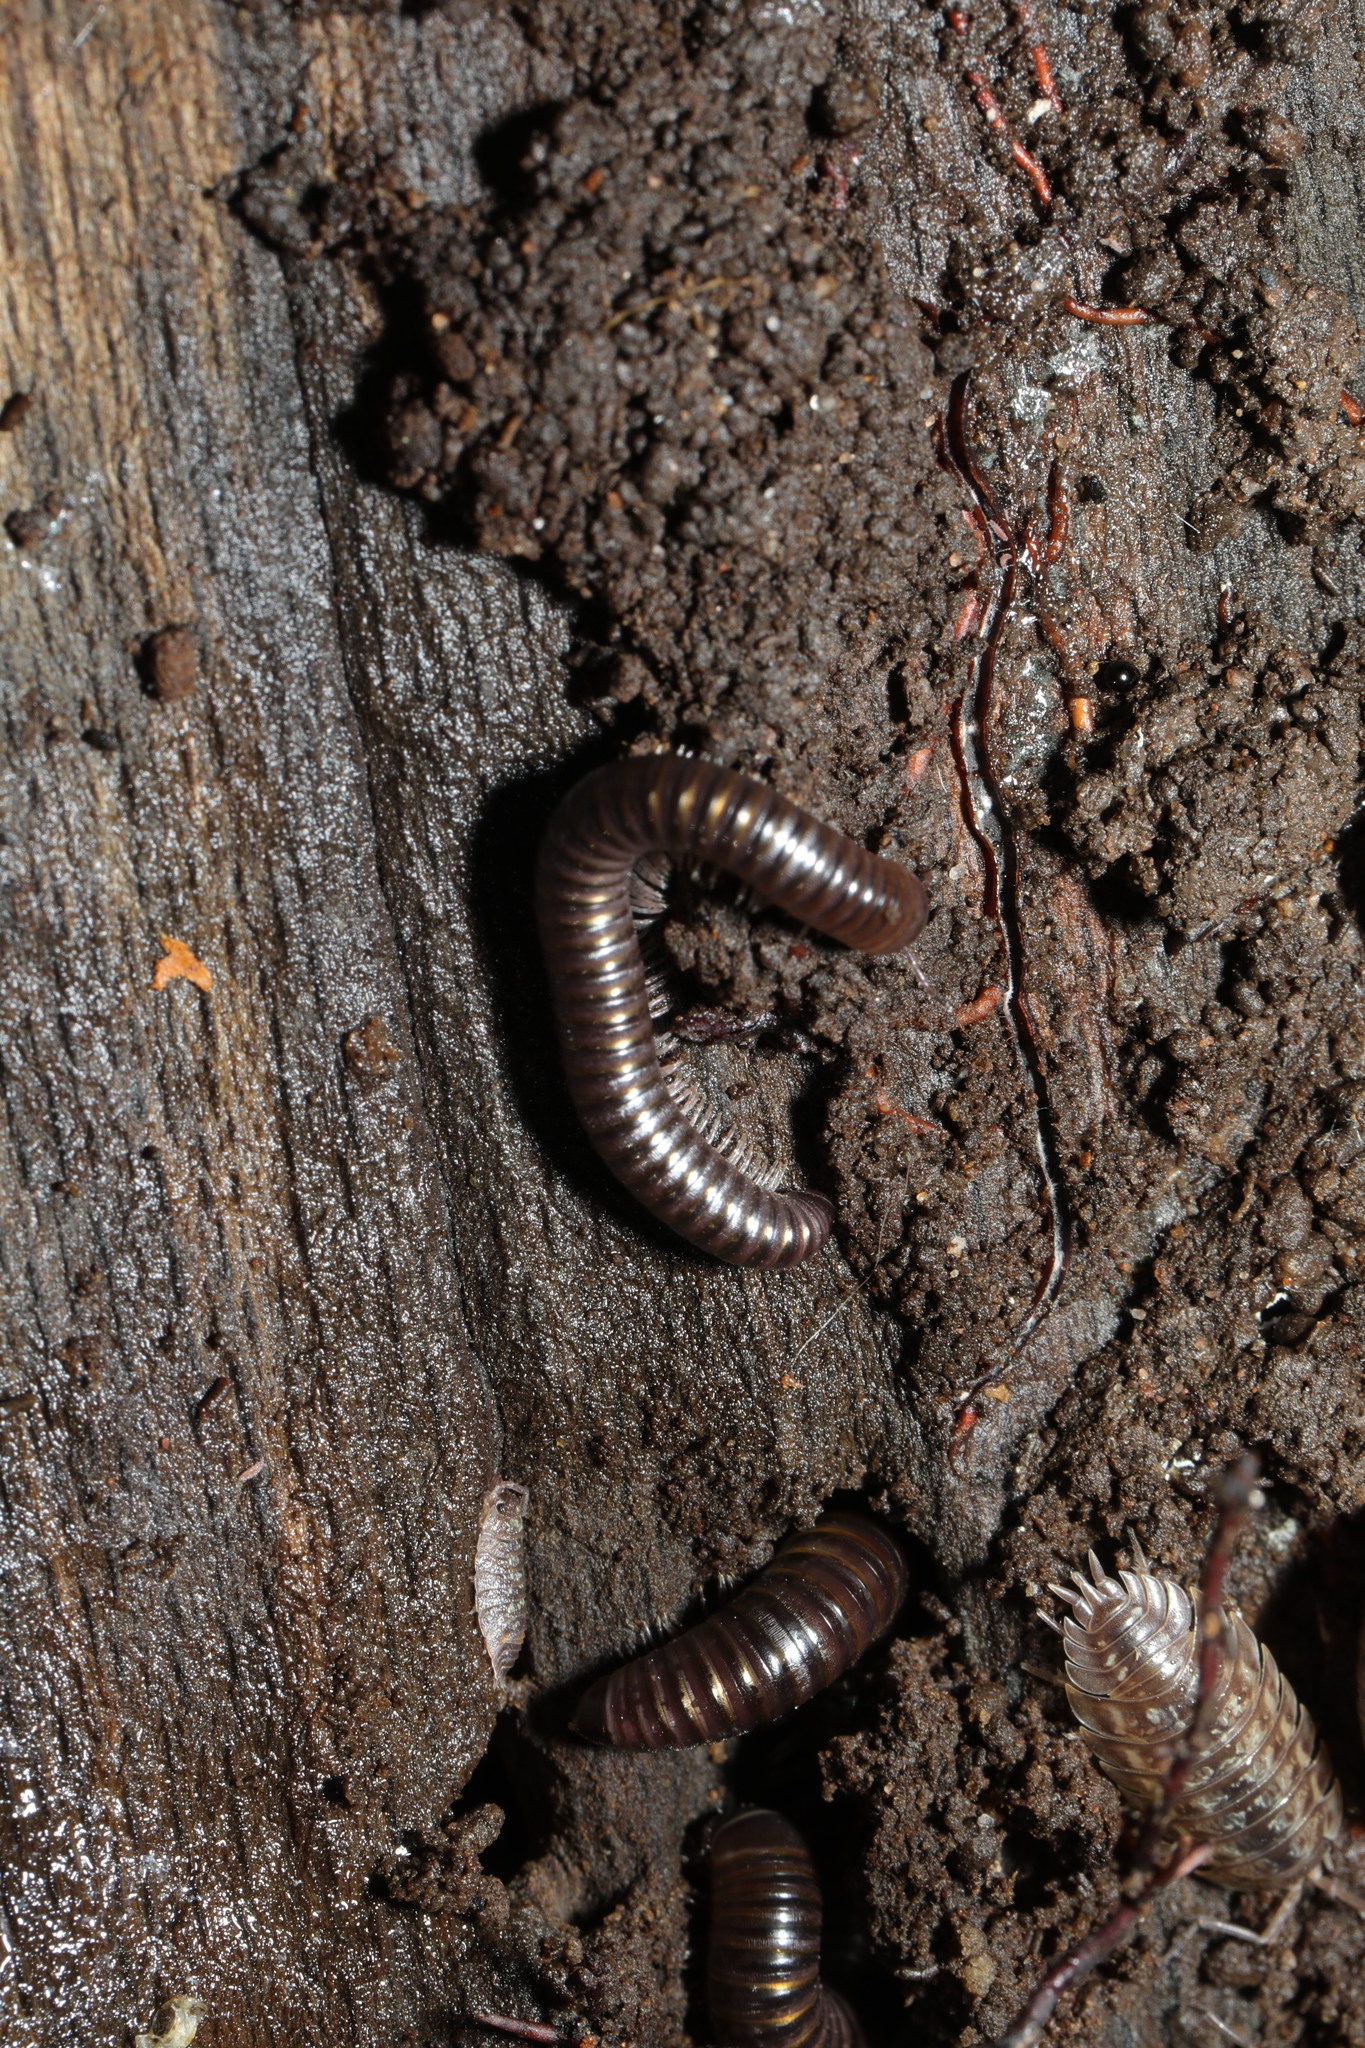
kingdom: Animalia
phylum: Arthropoda
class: Malacostraca
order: Isopoda
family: Oniscidae
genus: Oniscus
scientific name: Oniscus asellus
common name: Common shiny woodlouse
